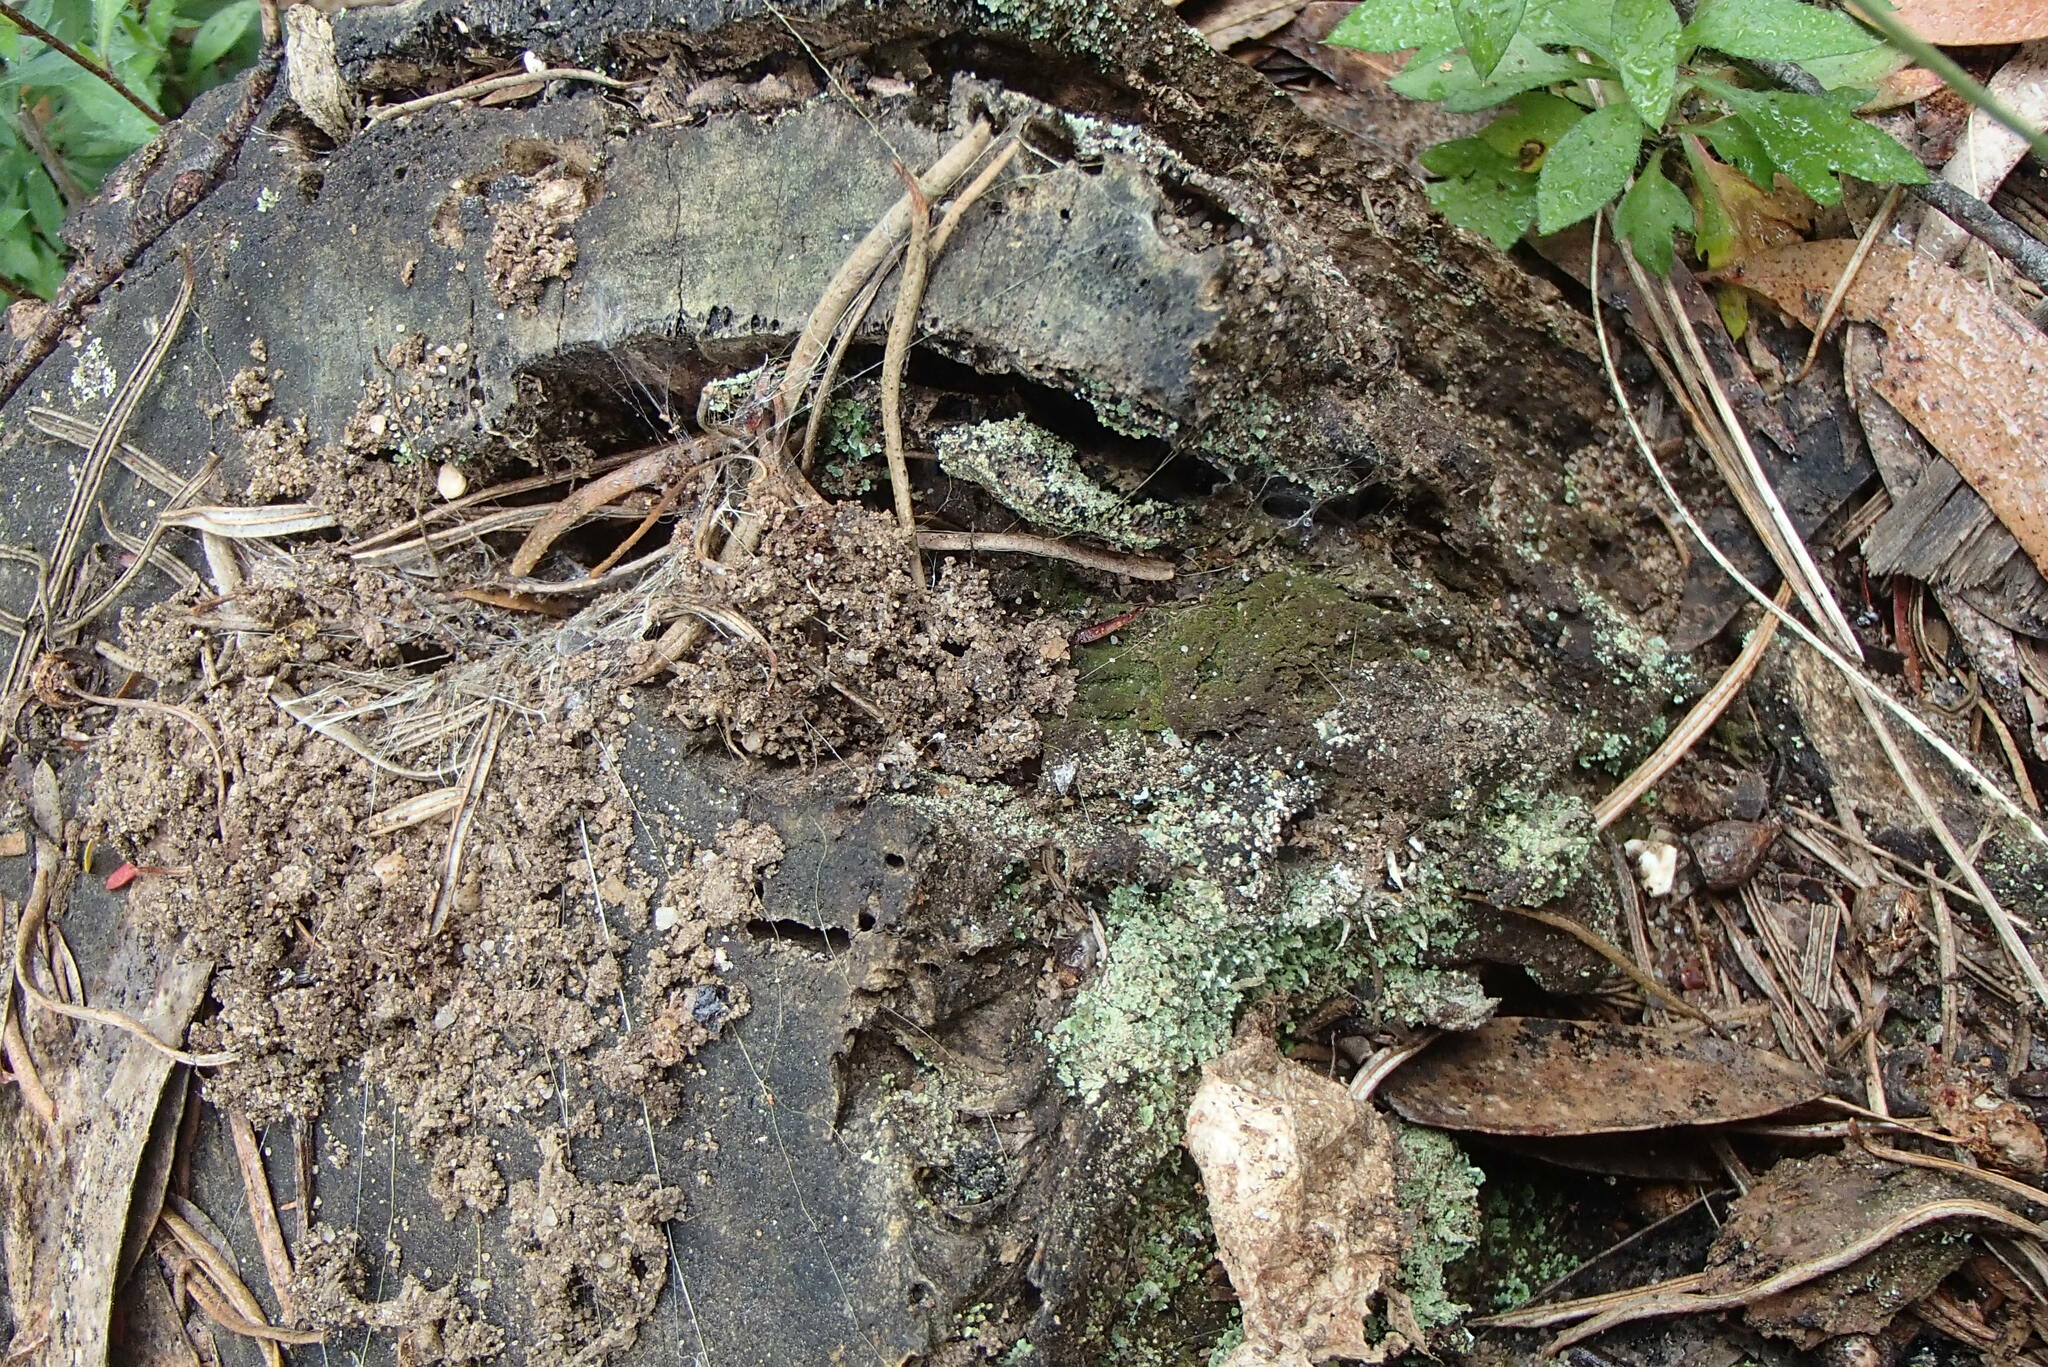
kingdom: Animalia
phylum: Arthropoda
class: Arachnida
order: Araneae
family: Atracidae
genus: Hadronyche
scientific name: Hadronyche versuta
